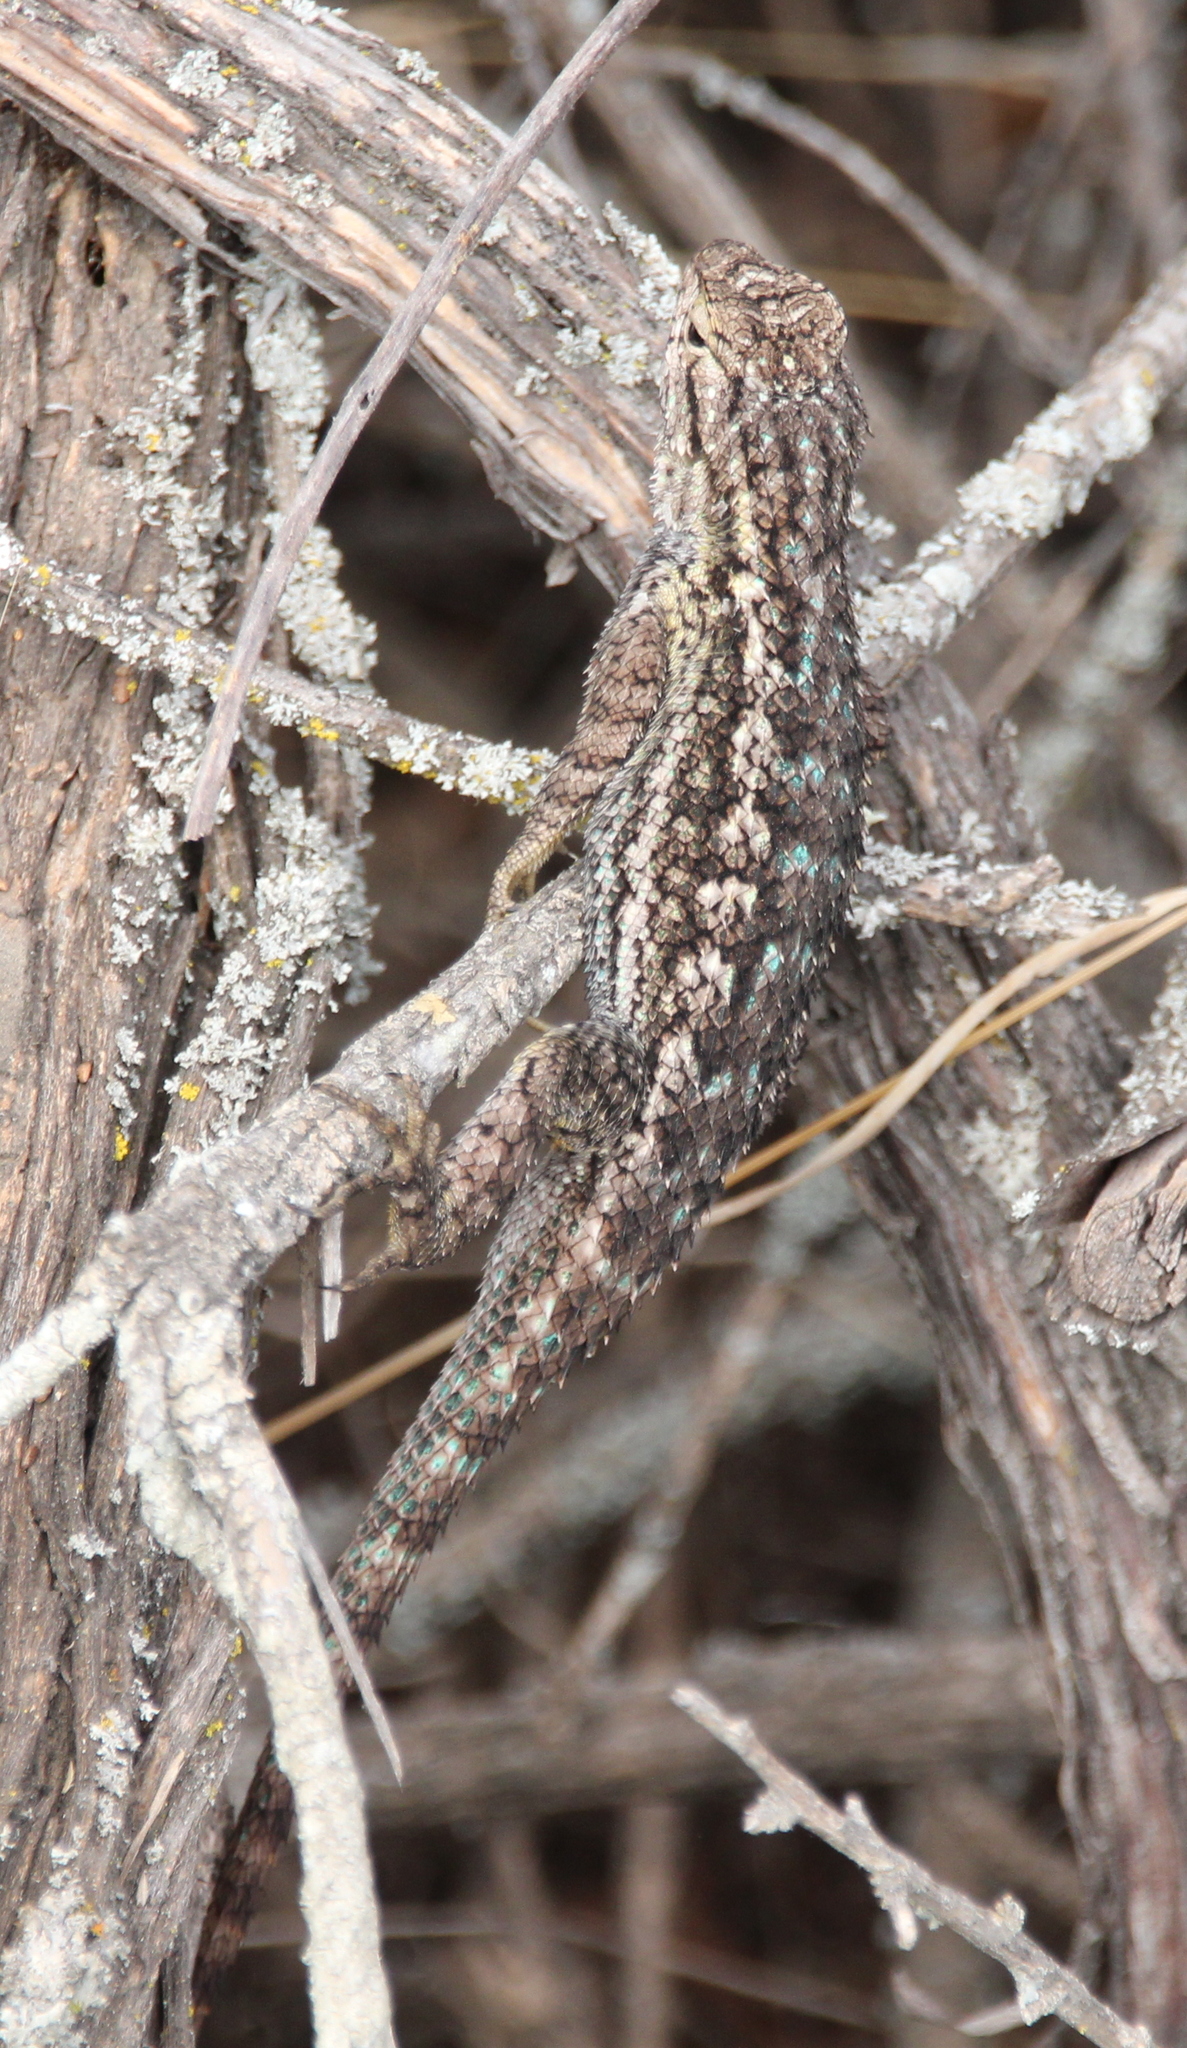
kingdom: Animalia
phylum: Chordata
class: Squamata
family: Phrynosomatidae
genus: Sceloporus
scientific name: Sceloporus occidentalis
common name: Western fence lizard
